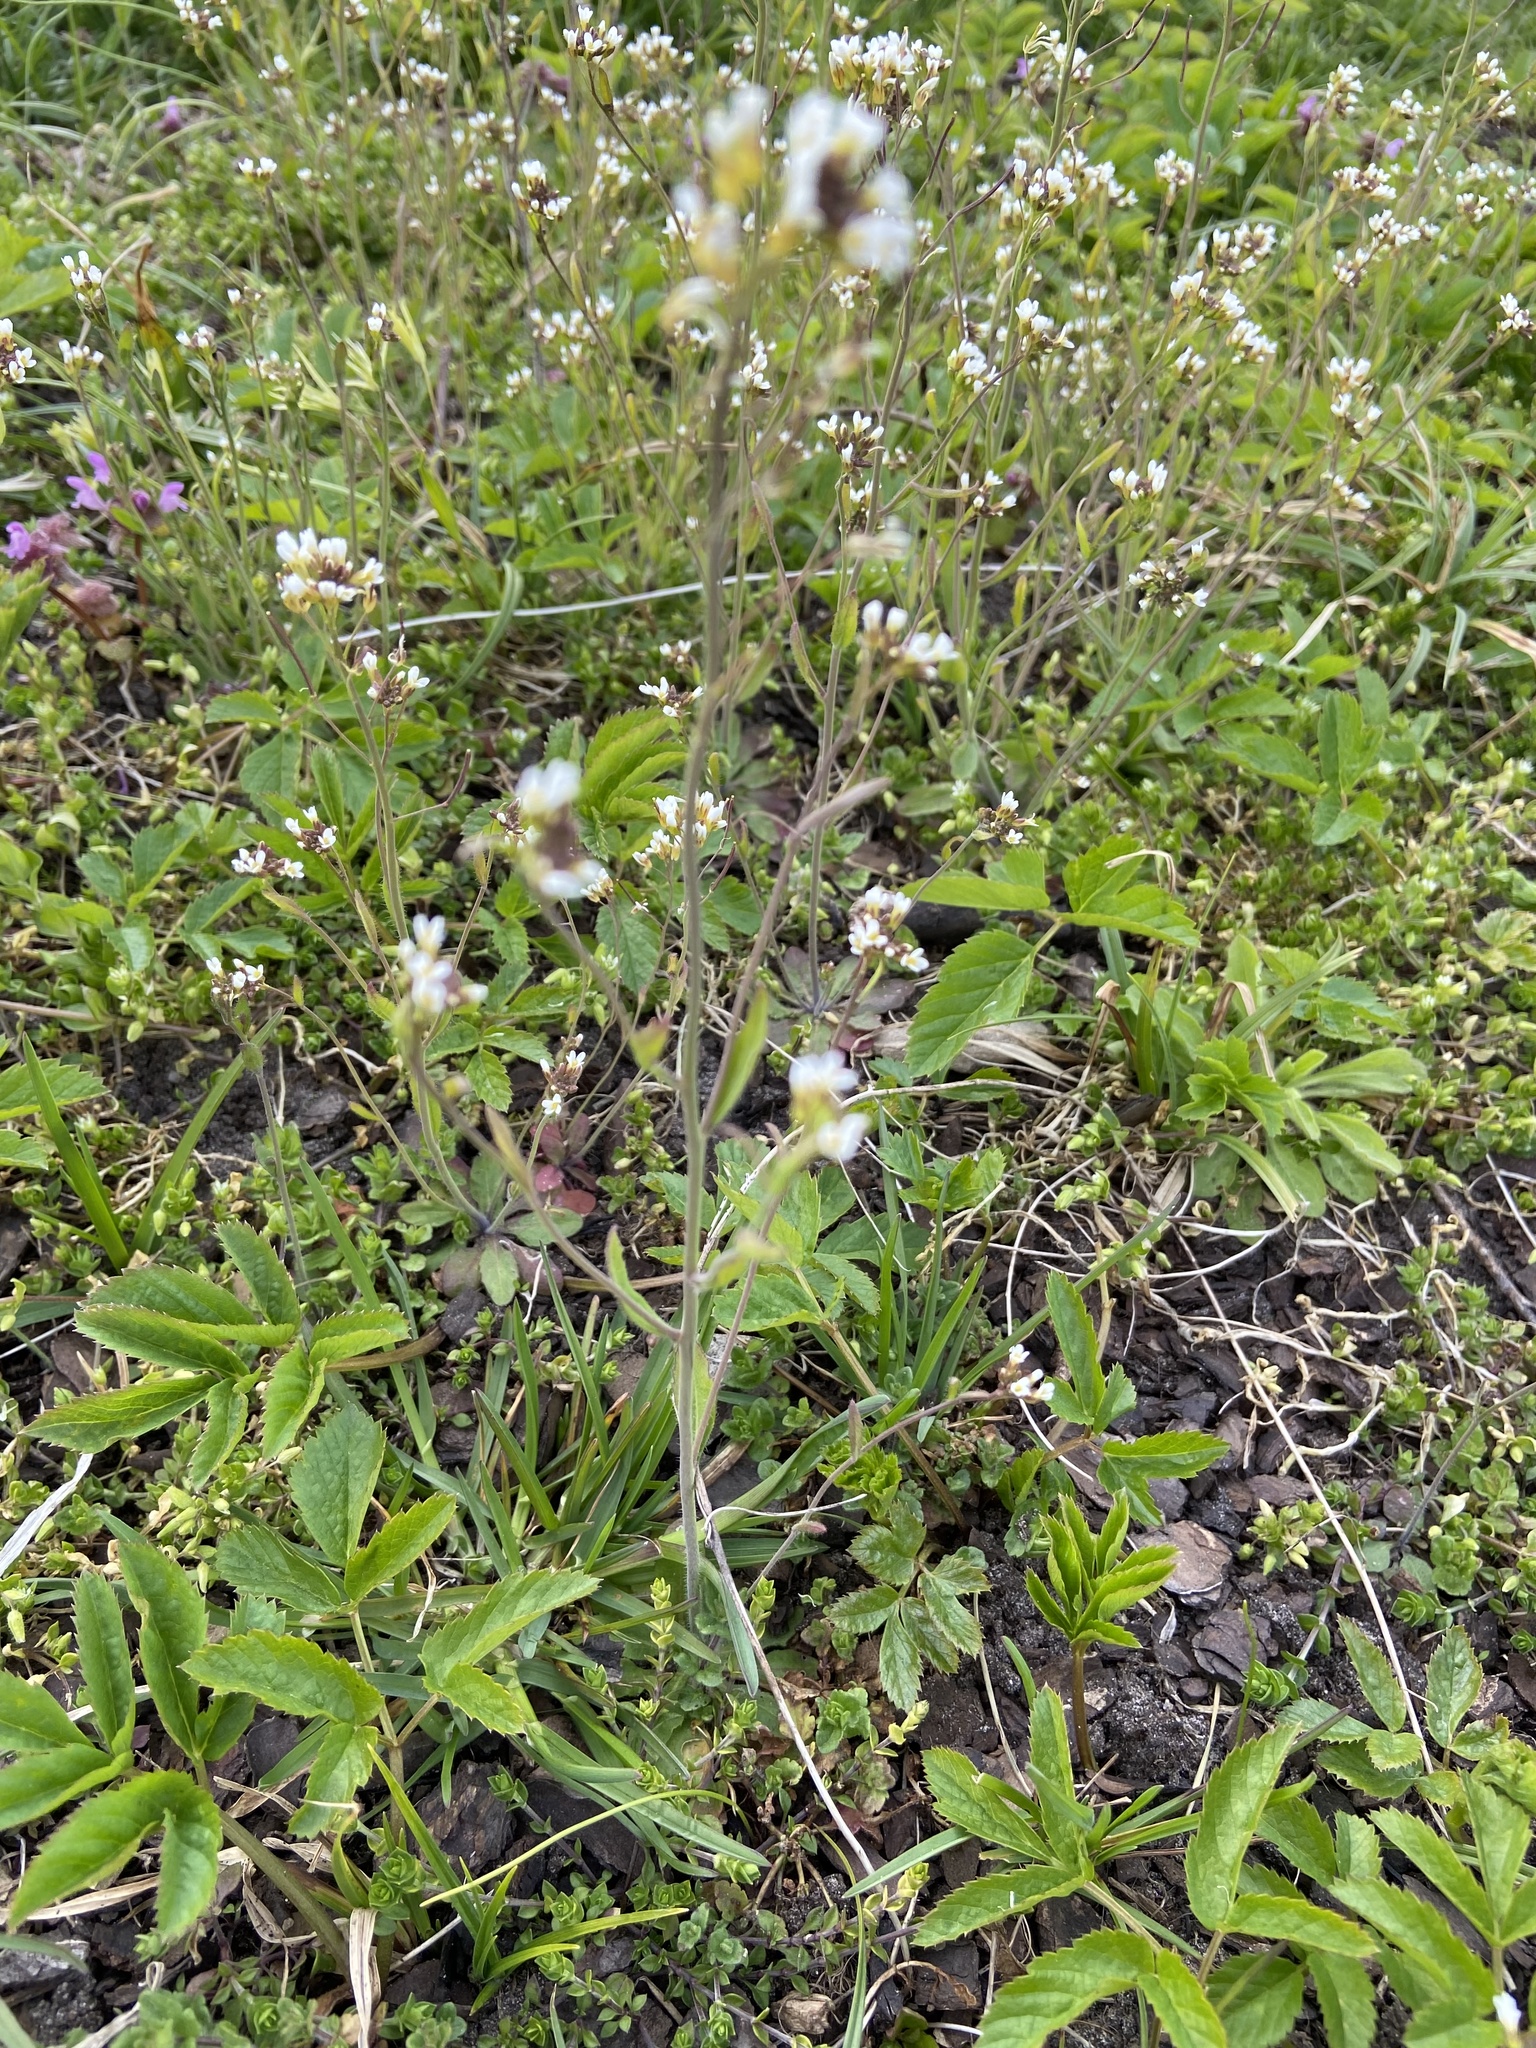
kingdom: Plantae
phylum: Tracheophyta
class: Magnoliopsida
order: Brassicales
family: Brassicaceae
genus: Arabidopsis
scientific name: Arabidopsis thaliana
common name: Thale cress
